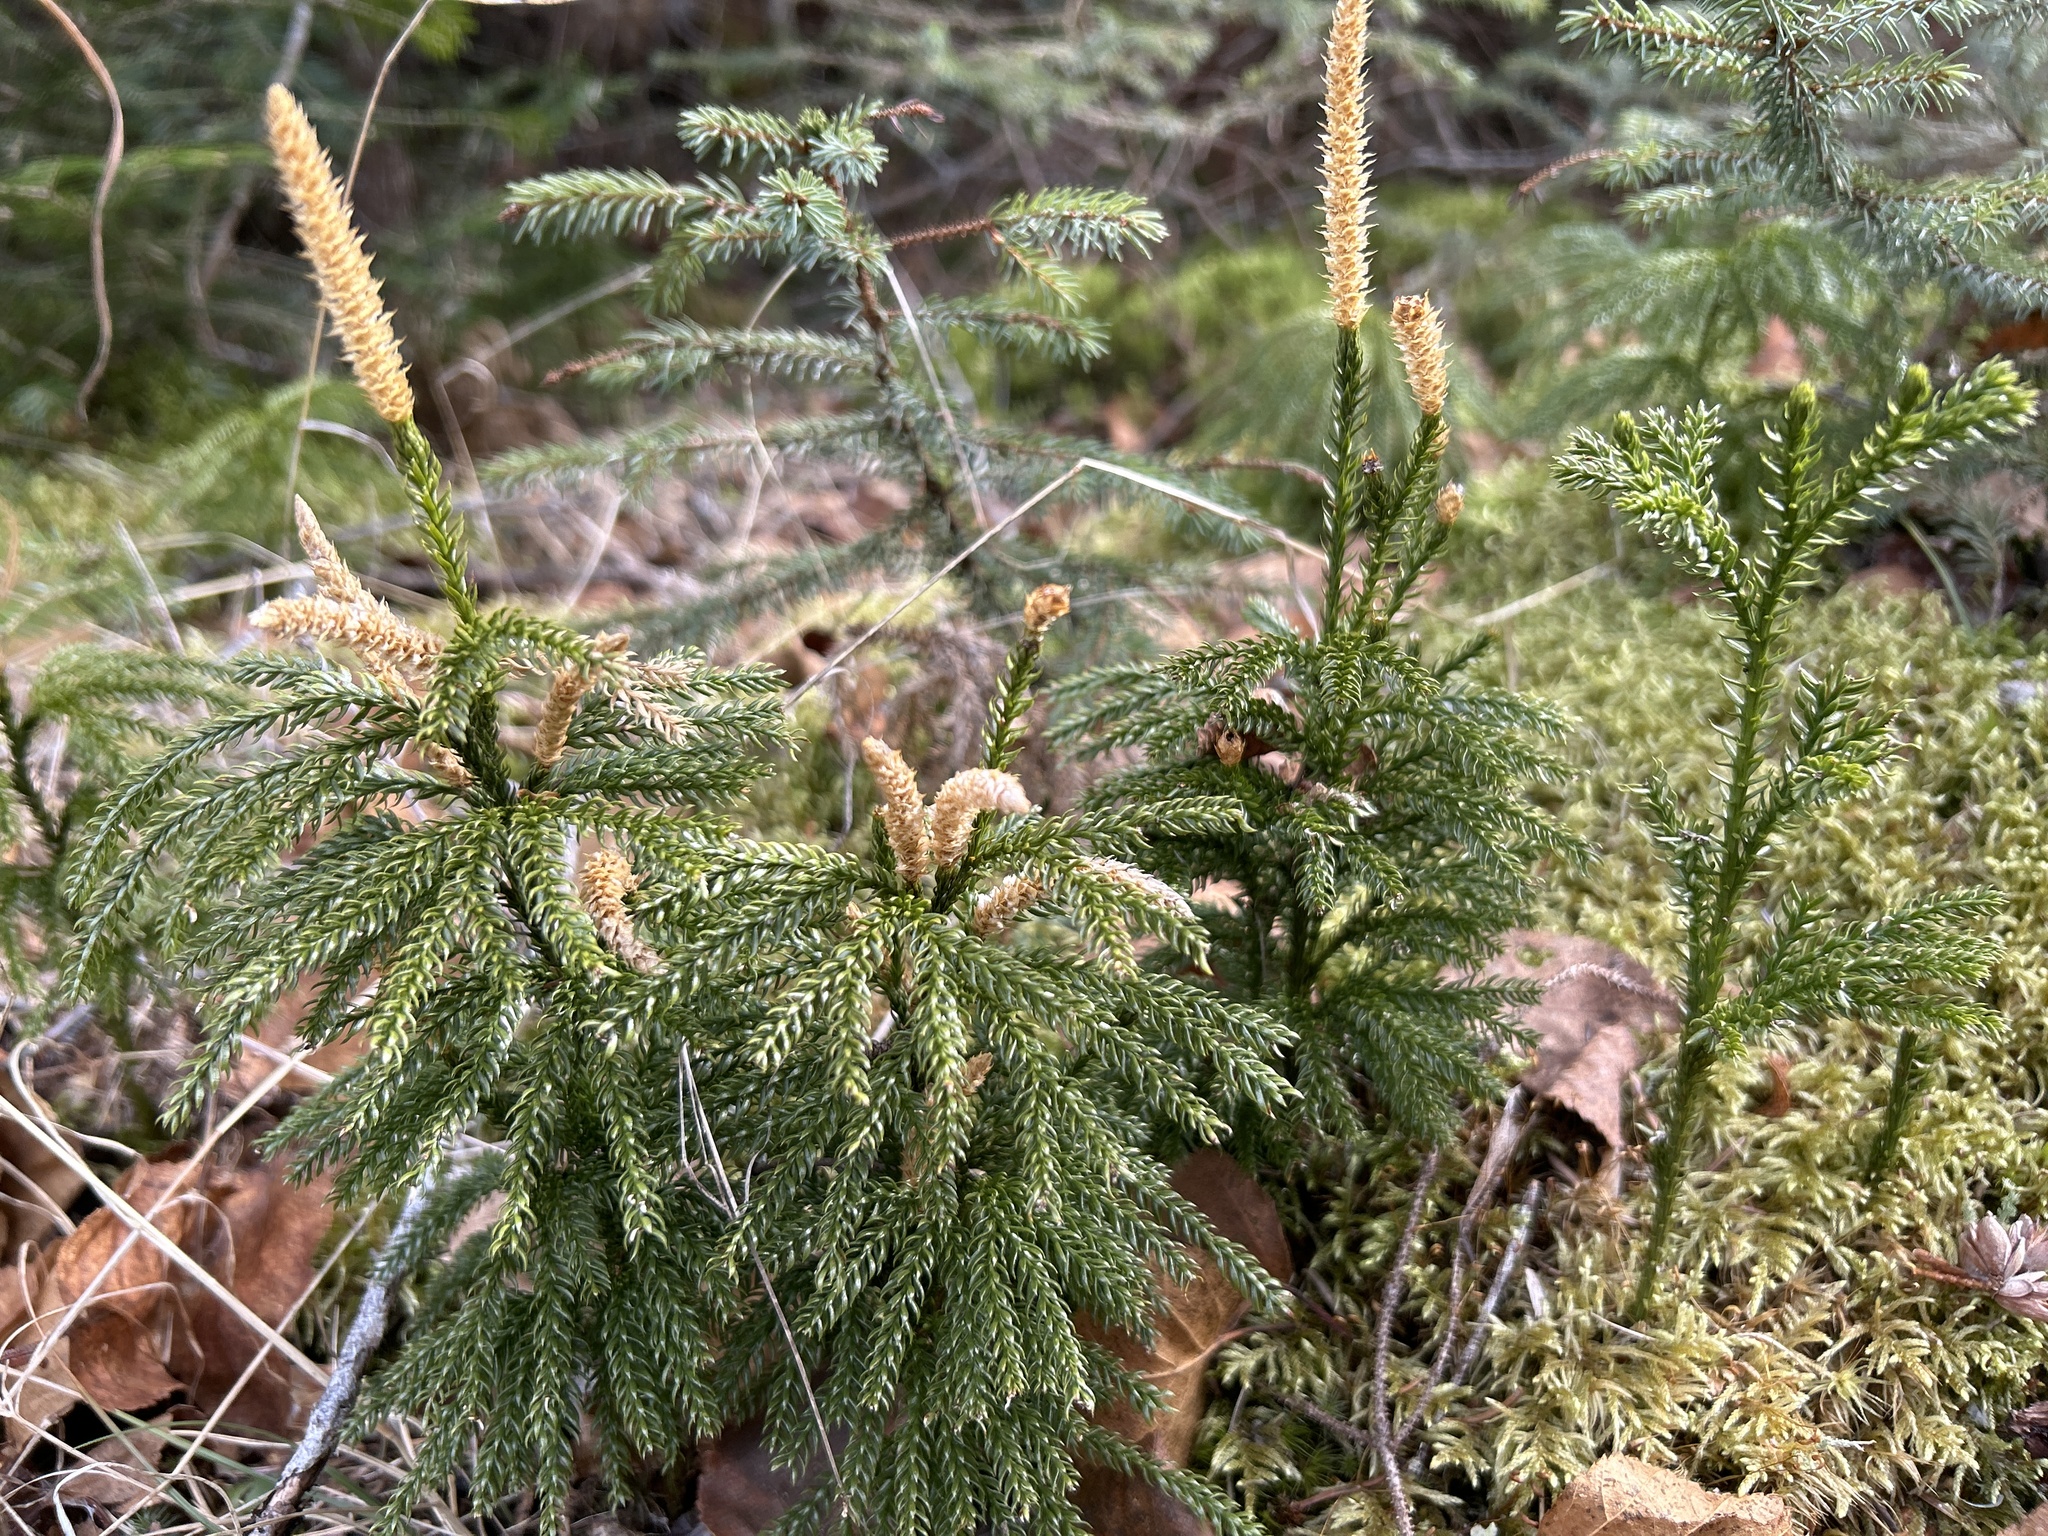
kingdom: Plantae
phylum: Tracheophyta
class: Lycopodiopsida
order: Lycopodiales
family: Lycopodiaceae
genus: Dendrolycopodium
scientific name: Dendrolycopodium hickeyi
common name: Hickey's clubmoss
